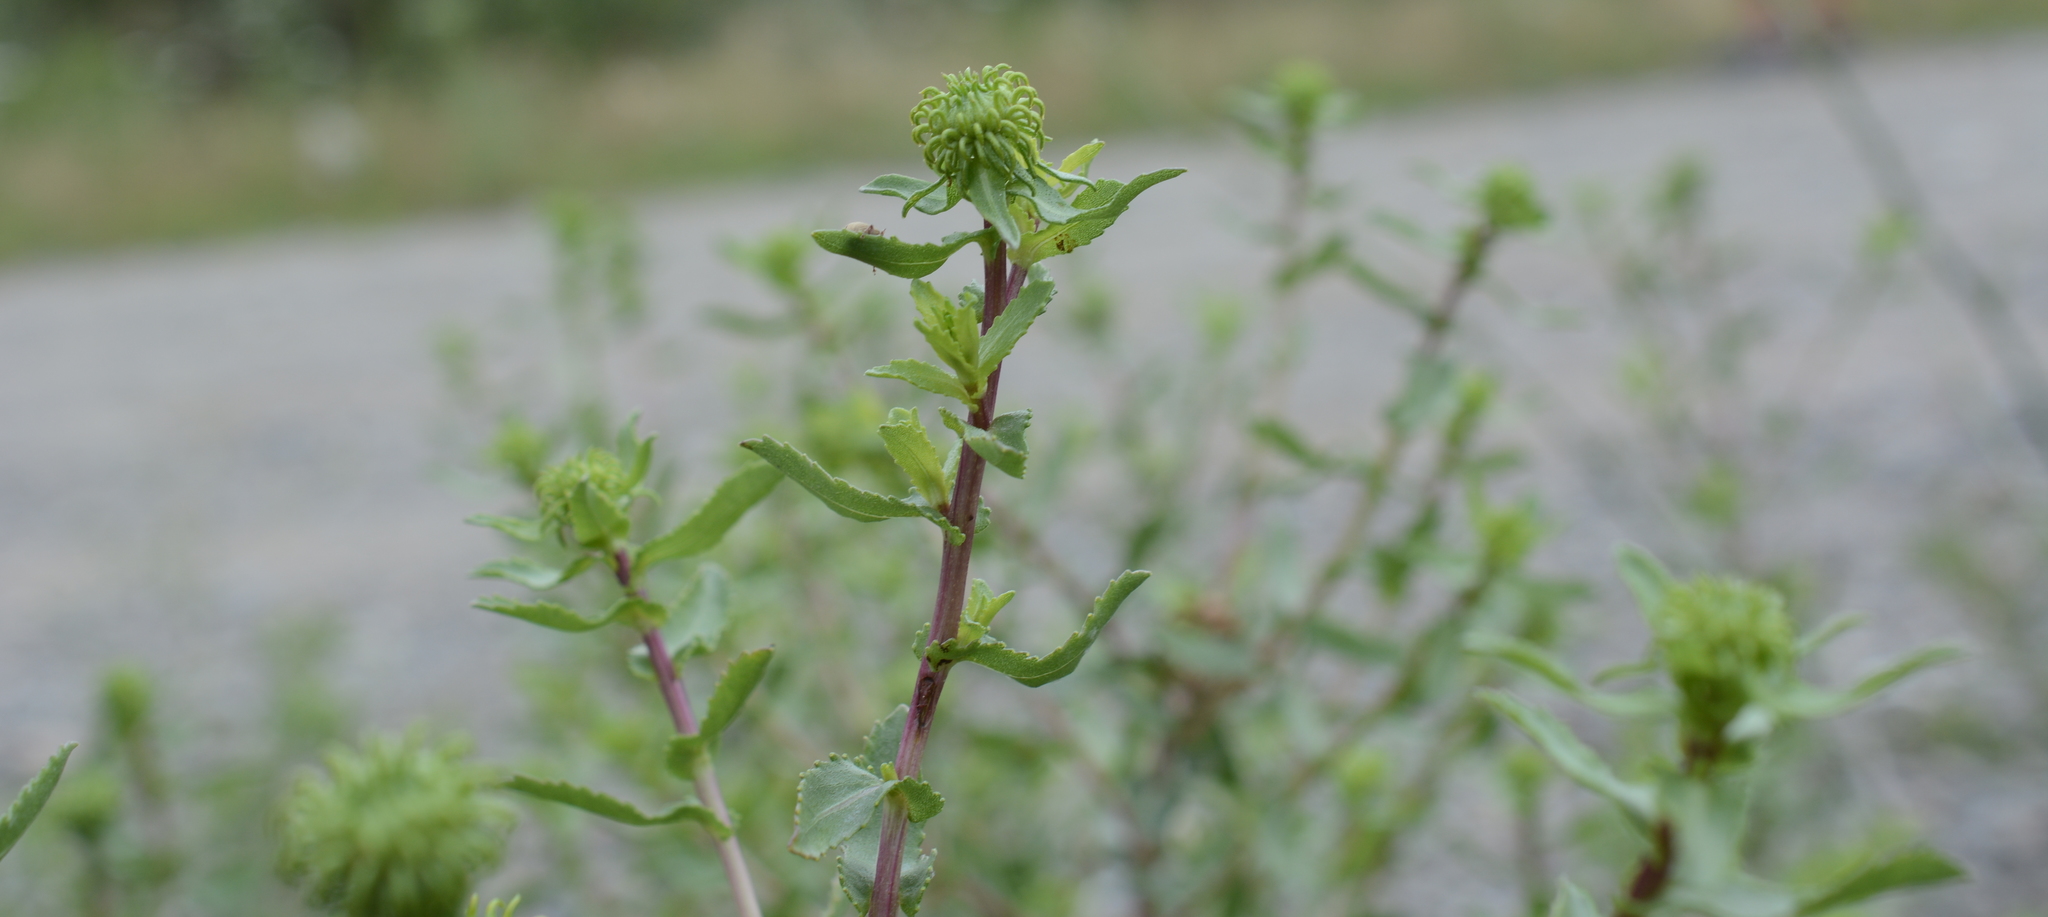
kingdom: Plantae
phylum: Tracheophyta
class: Magnoliopsida
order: Asterales
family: Asteraceae
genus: Grindelia
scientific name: Grindelia squarrosa
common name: Curly-cup gumweed
